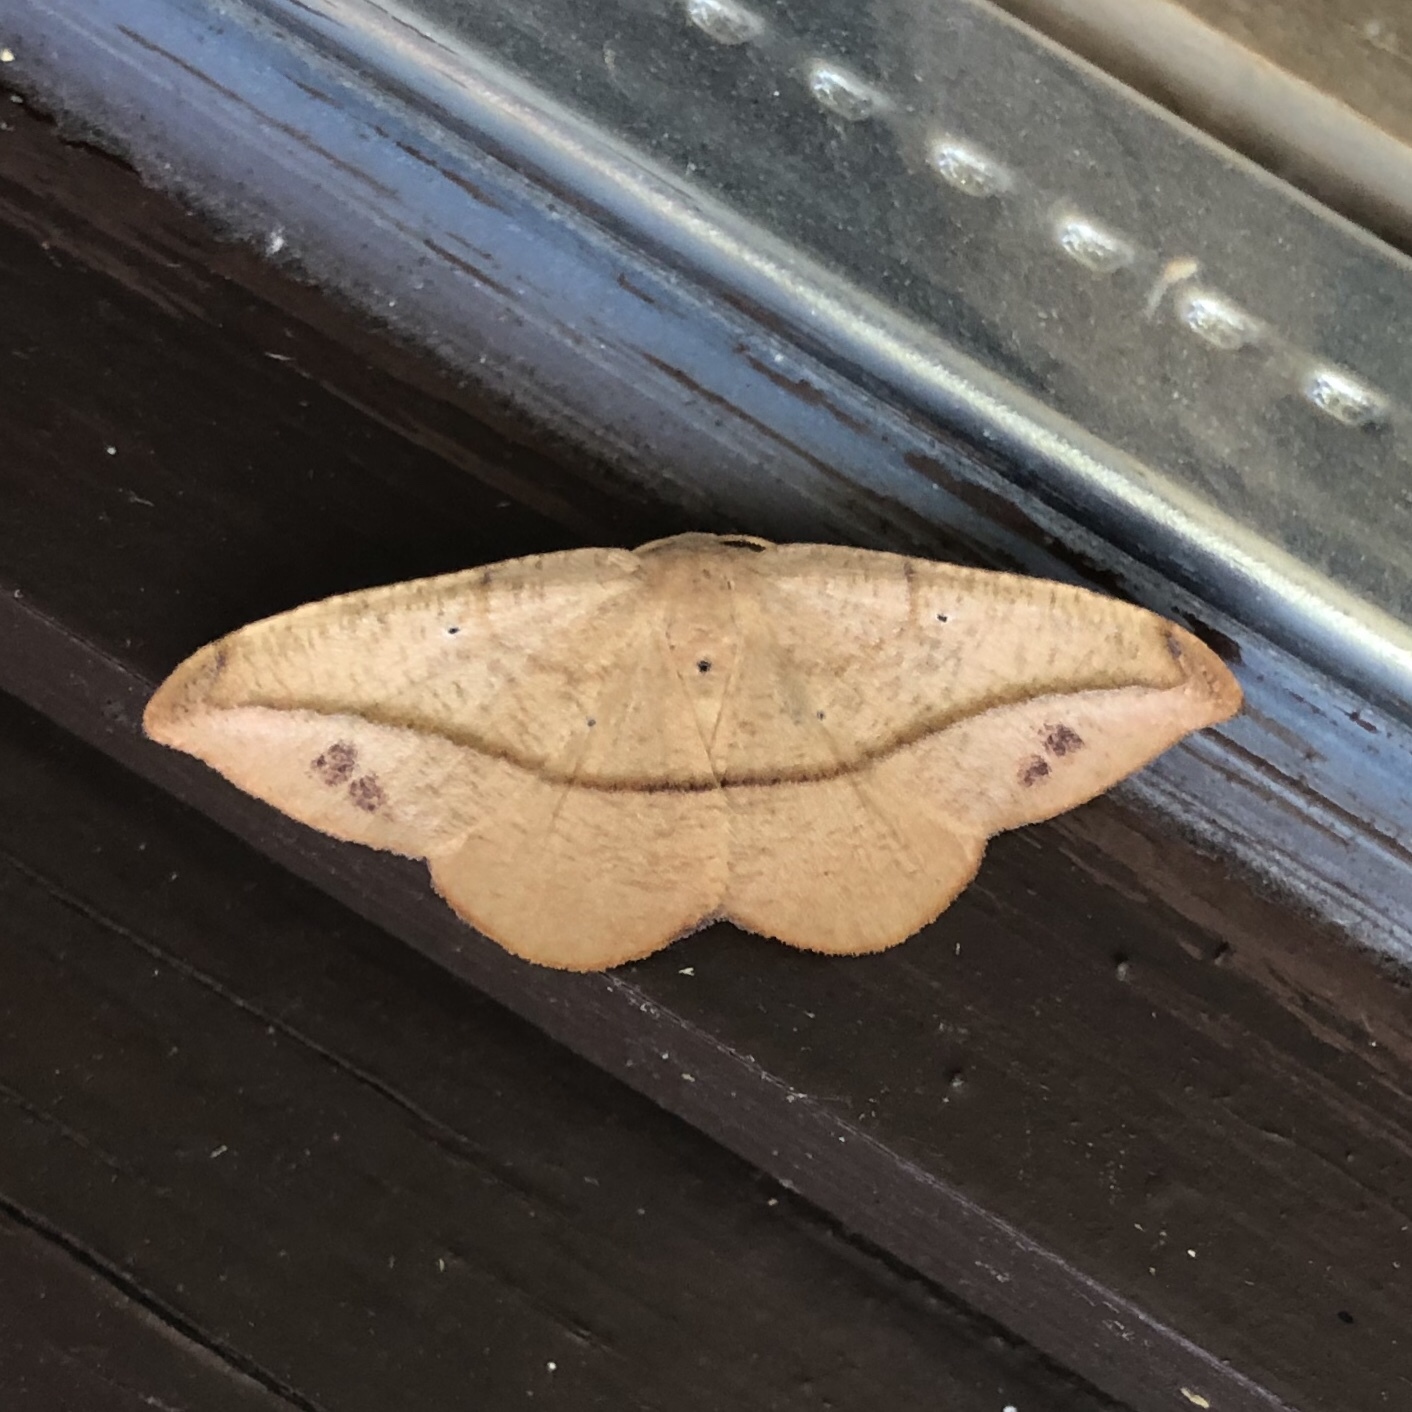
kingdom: Animalia
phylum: Arthropoda
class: Insecta
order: Lepidoptera
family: Geometridae
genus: Patalene
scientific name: Patalene olyzonaria
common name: Juniper geometer moth
